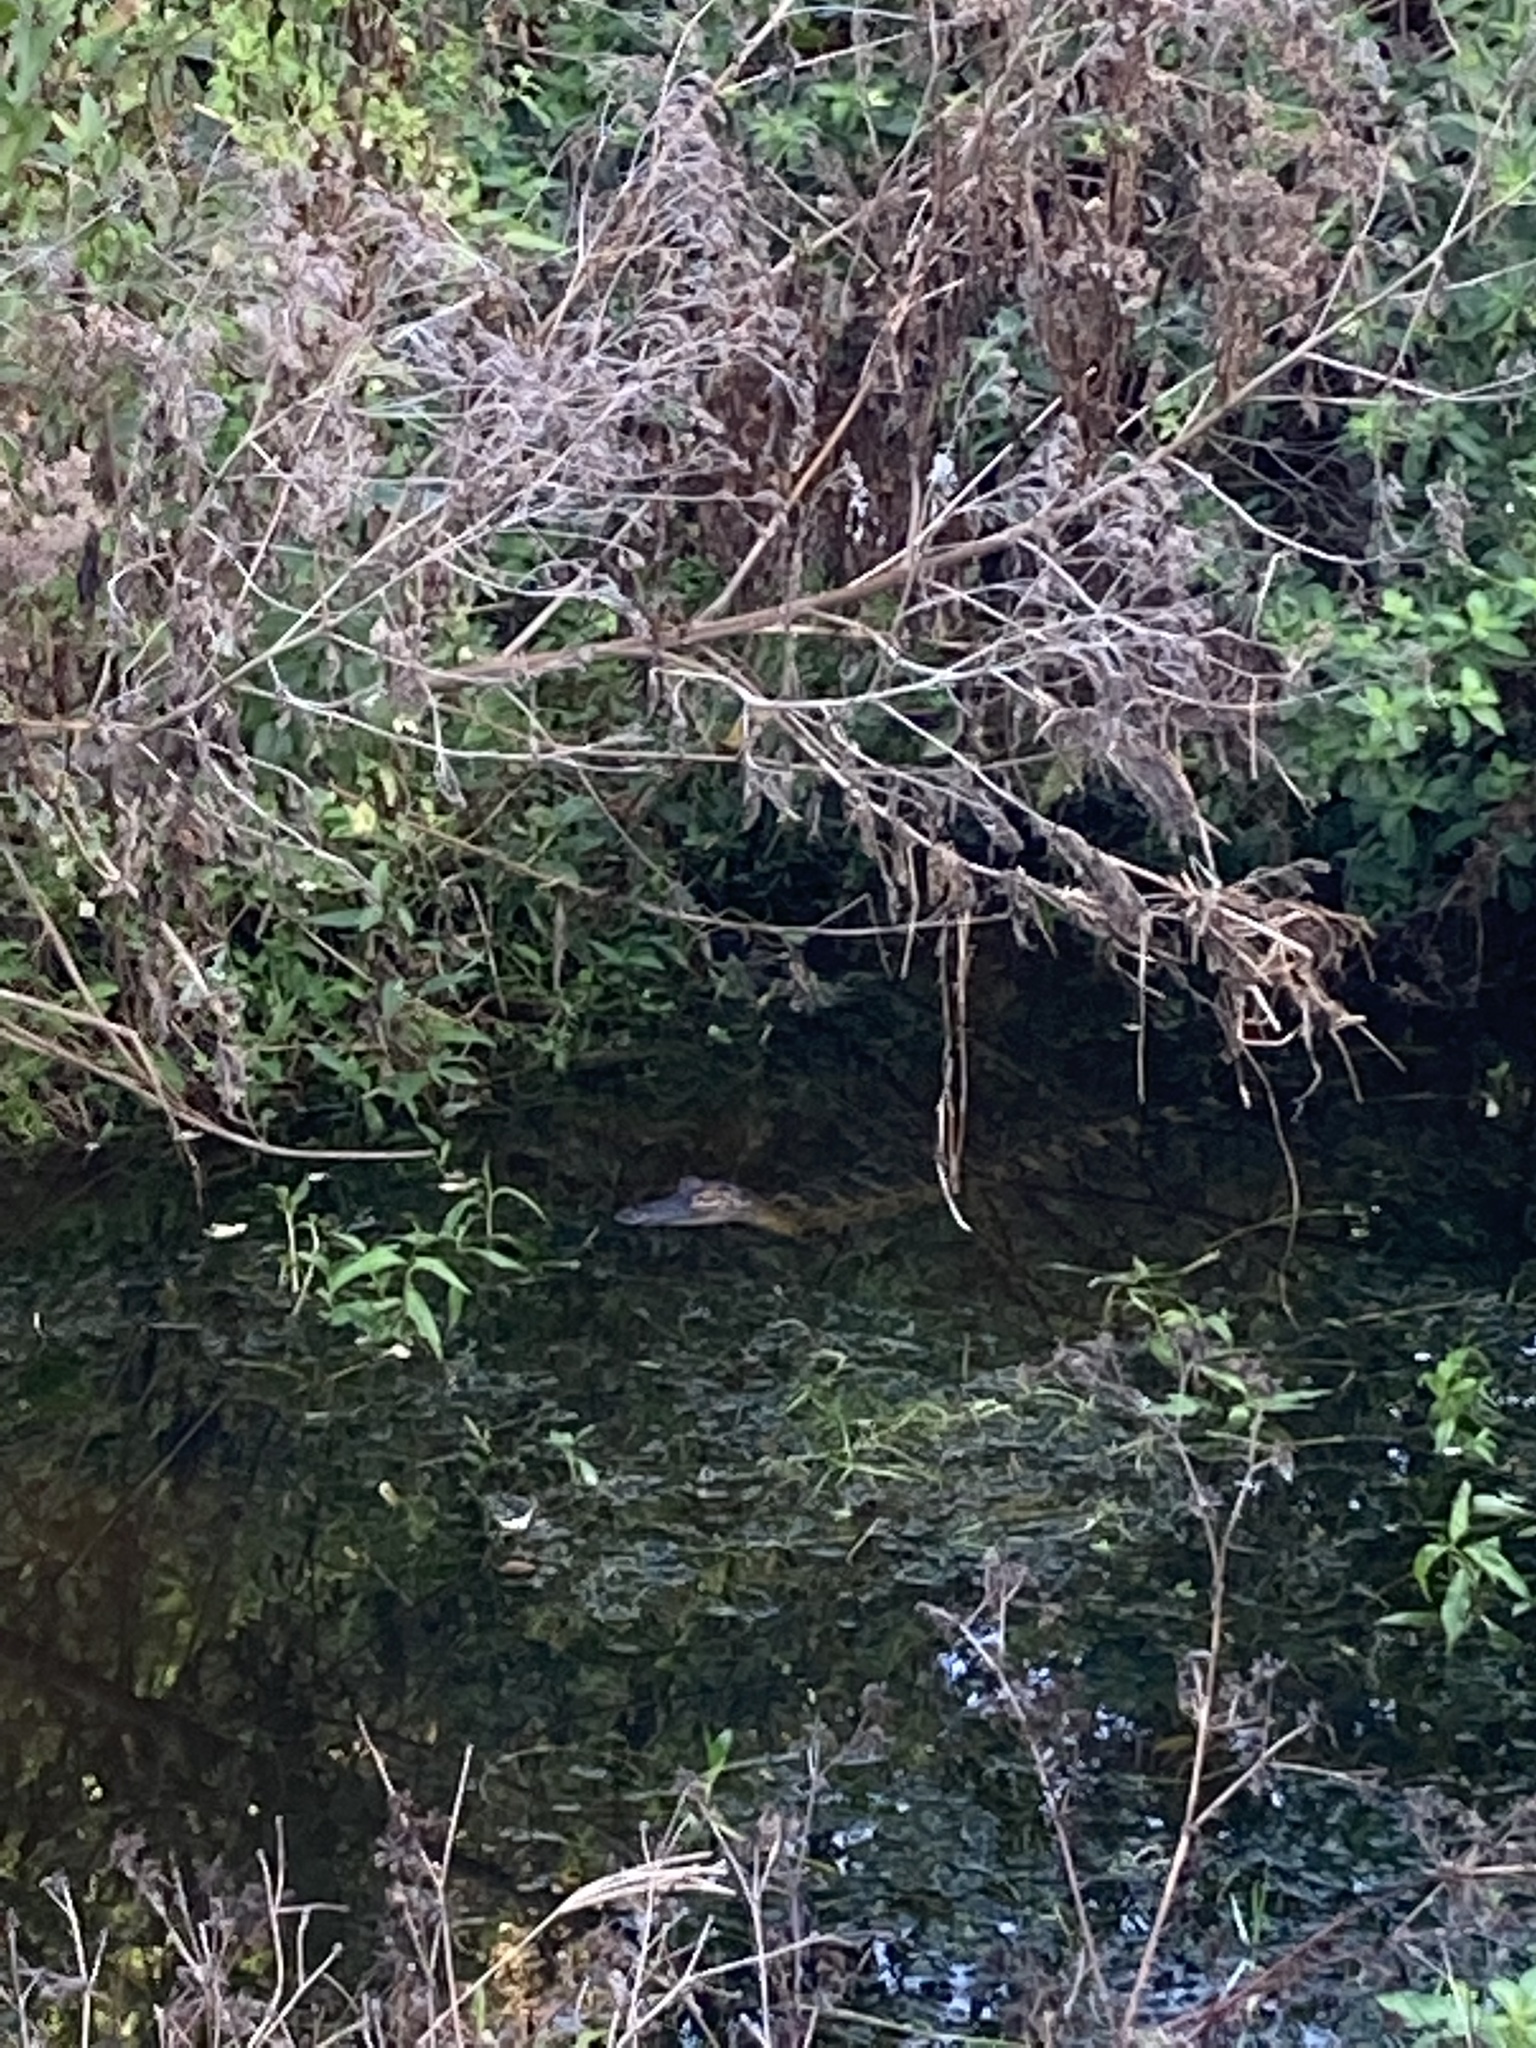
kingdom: Animalia
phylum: Chordata
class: Crocodylia
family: Alligatoridae
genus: Alligator
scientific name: Alligator mississippiensis
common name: American alligator
